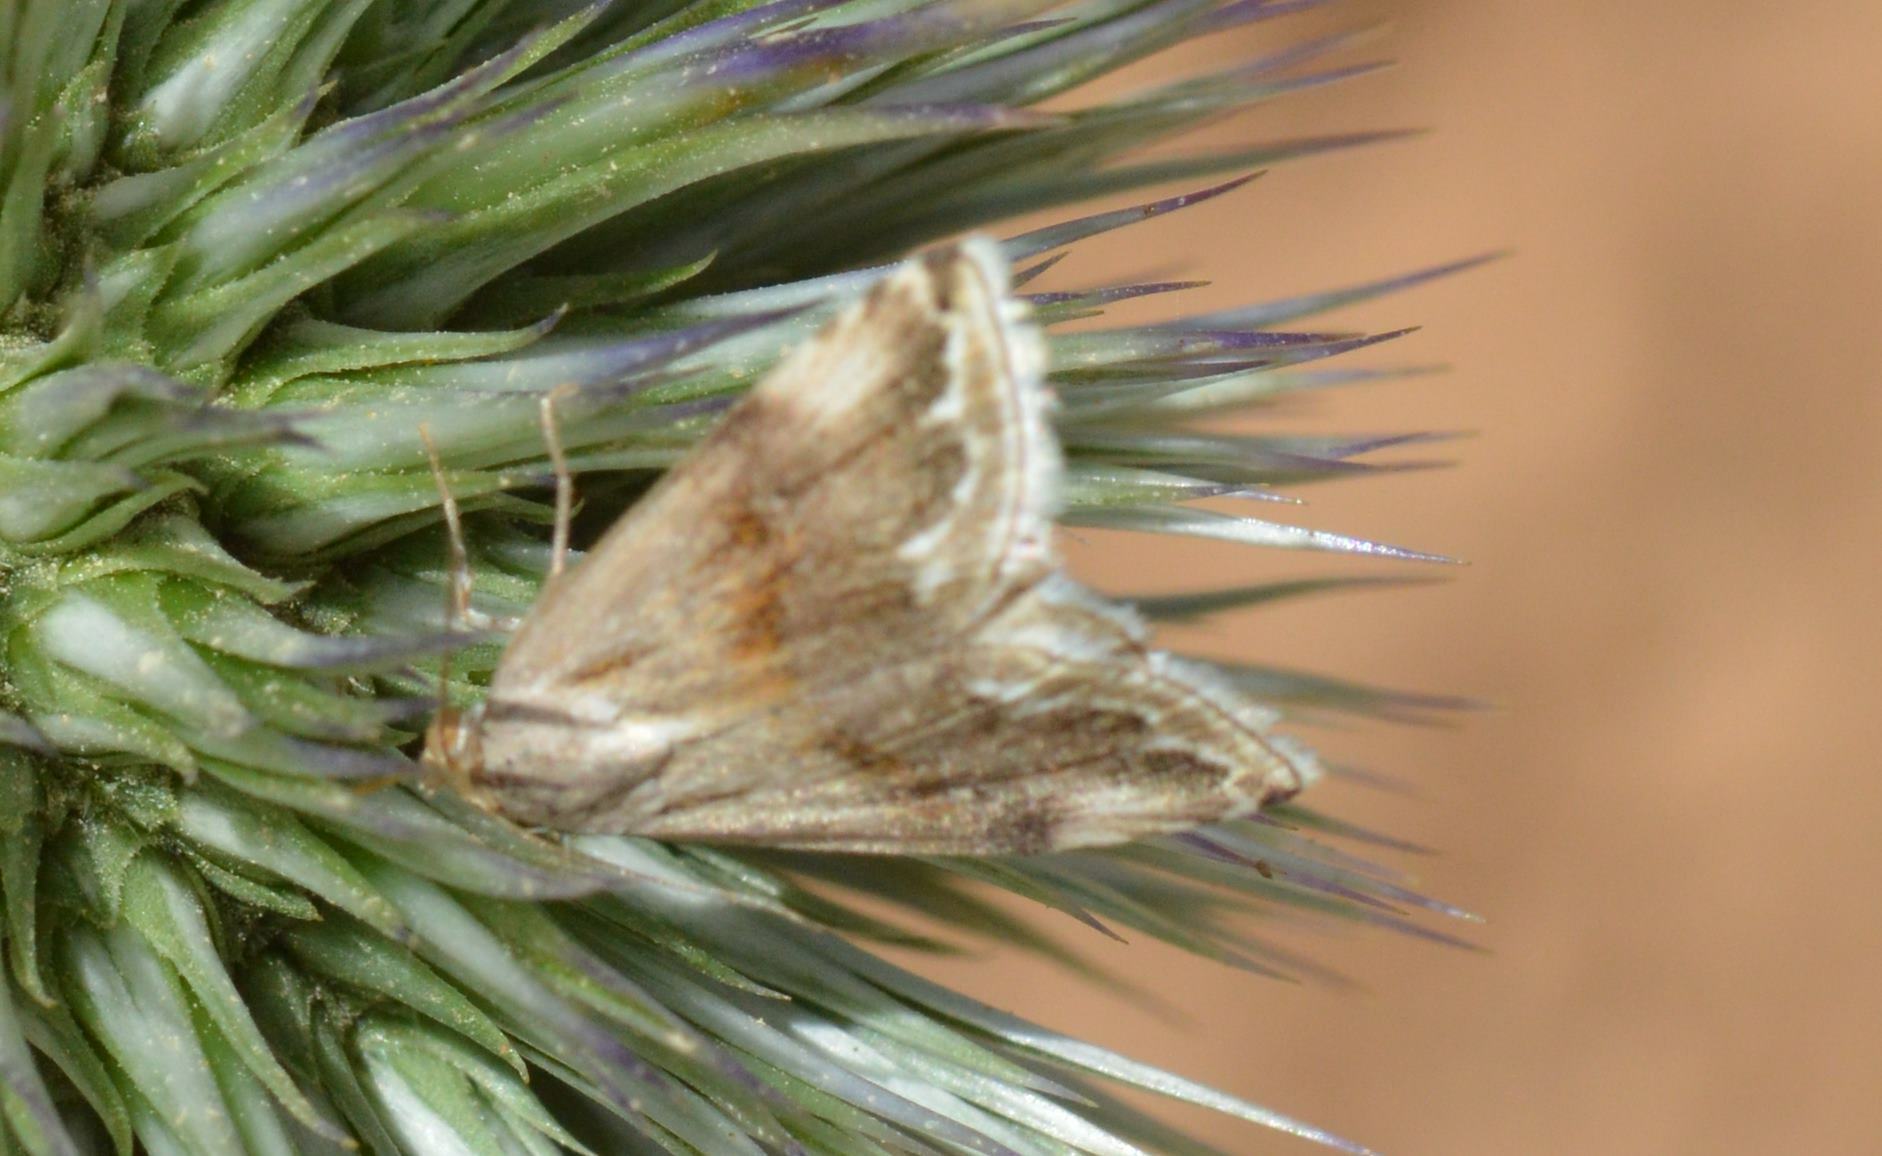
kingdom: Animalia
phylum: Arthropoda
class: Insecta
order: Lepidoptera
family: Noctuidae
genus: Eublemma
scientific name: Eublemma ostrina
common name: Purple marbled
